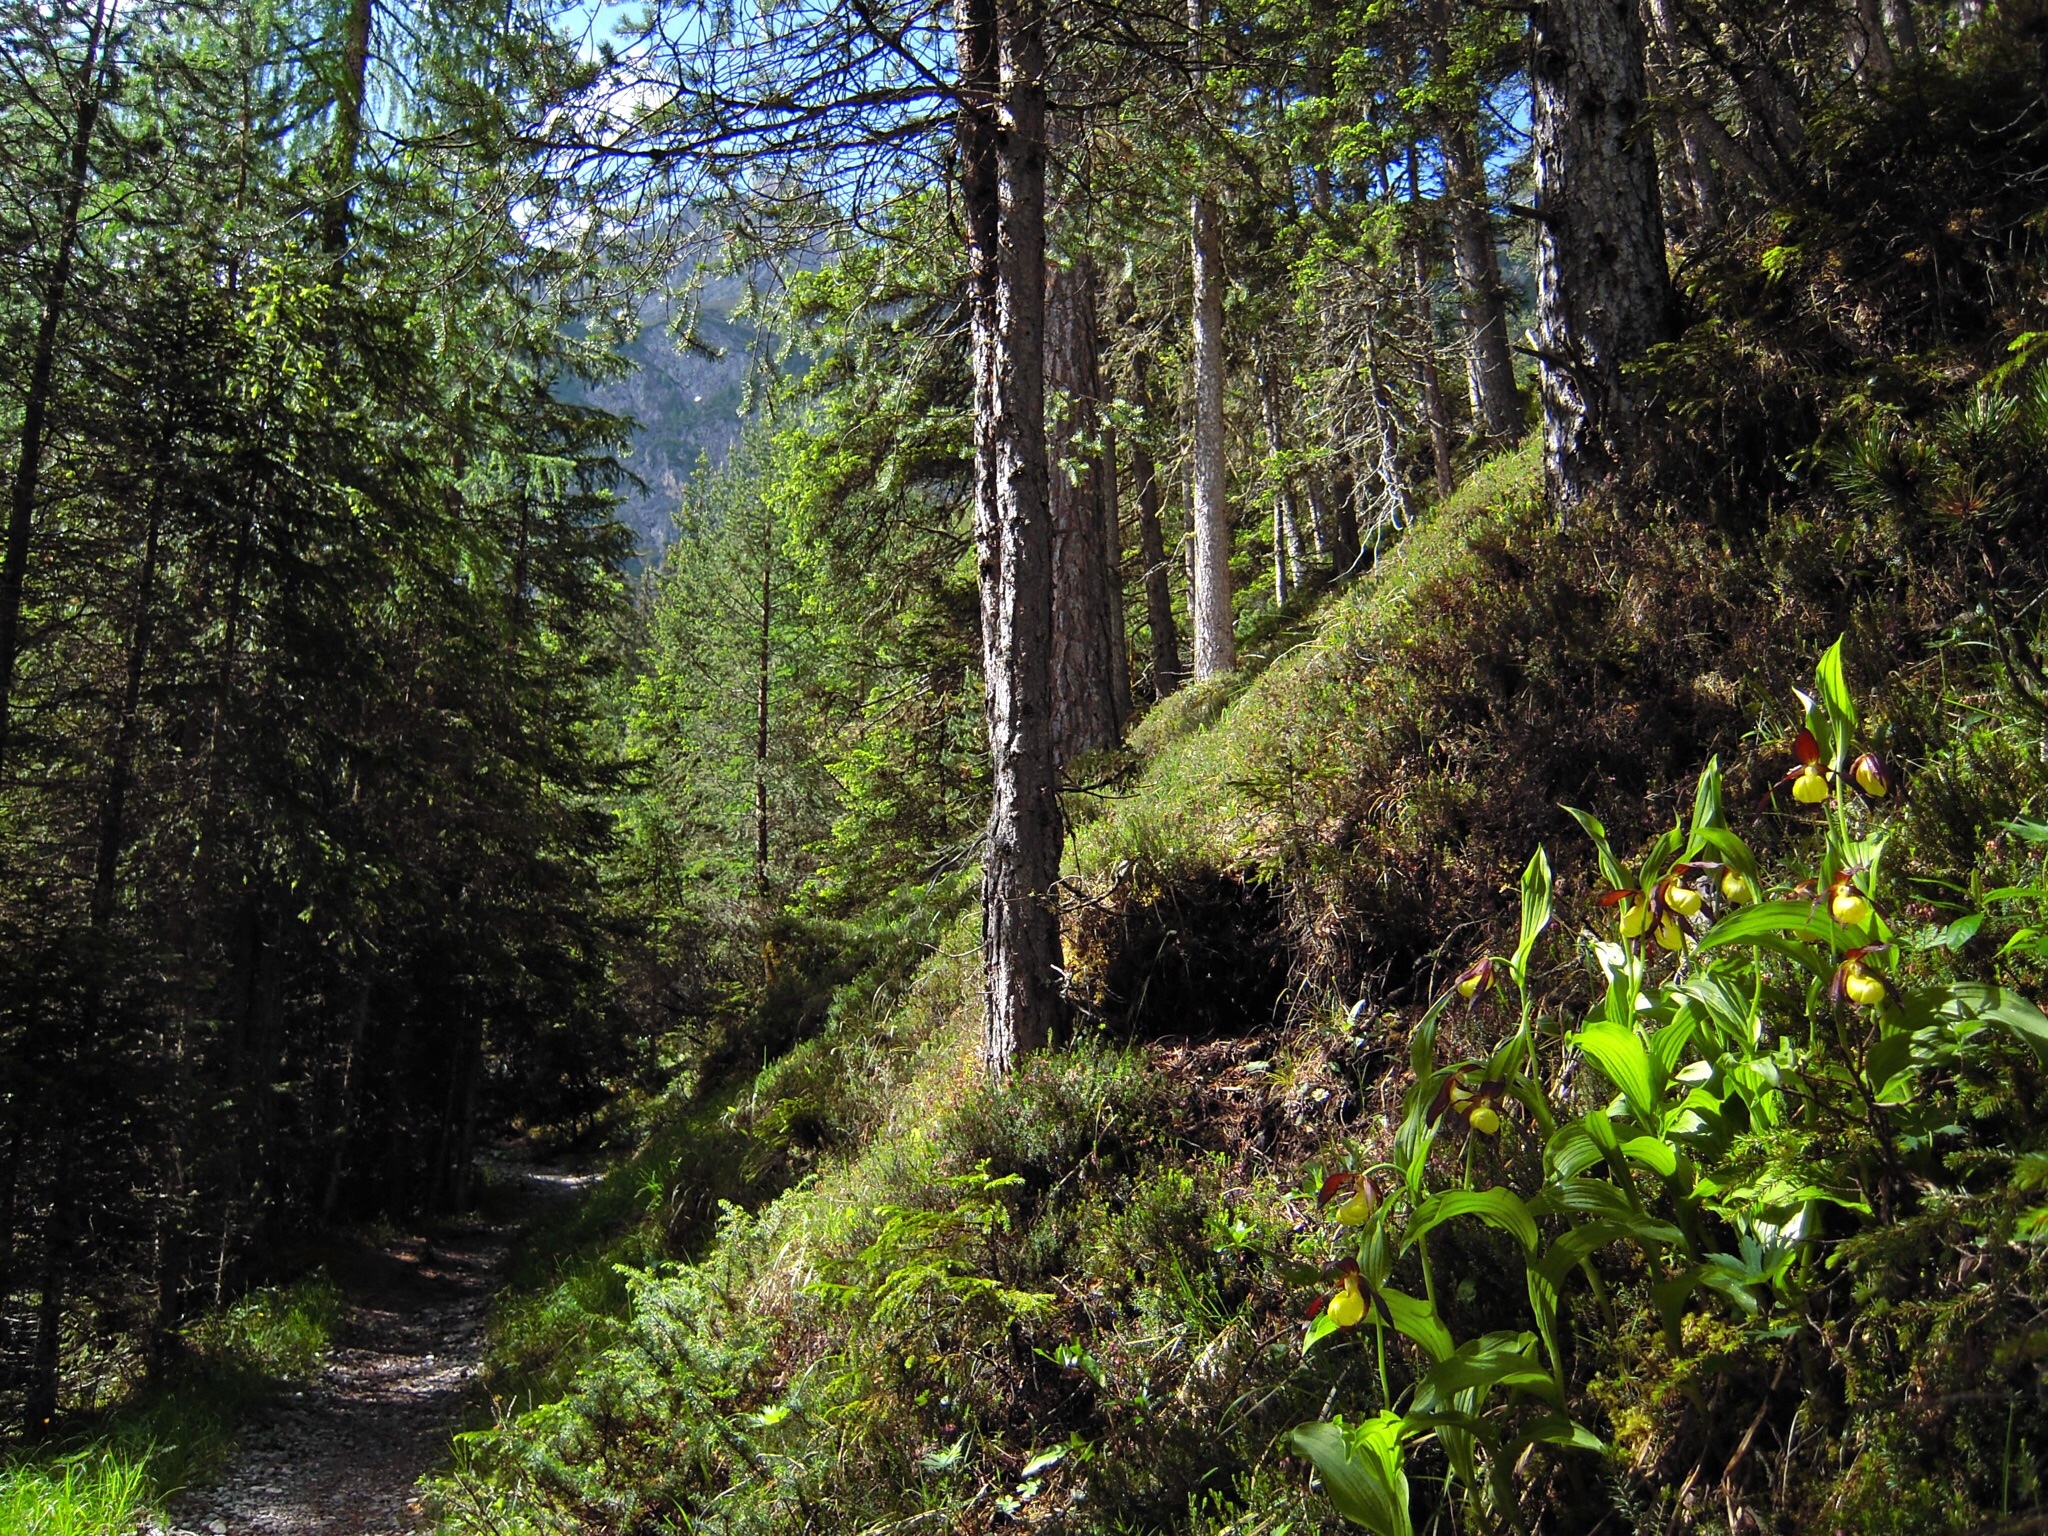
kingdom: Plantae
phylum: Tracheophyta
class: Liliopsida
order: Asparagales
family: Orchidaceae
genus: Cypripedium
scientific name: Cypripedium calceolus
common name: Lady's-slipper
